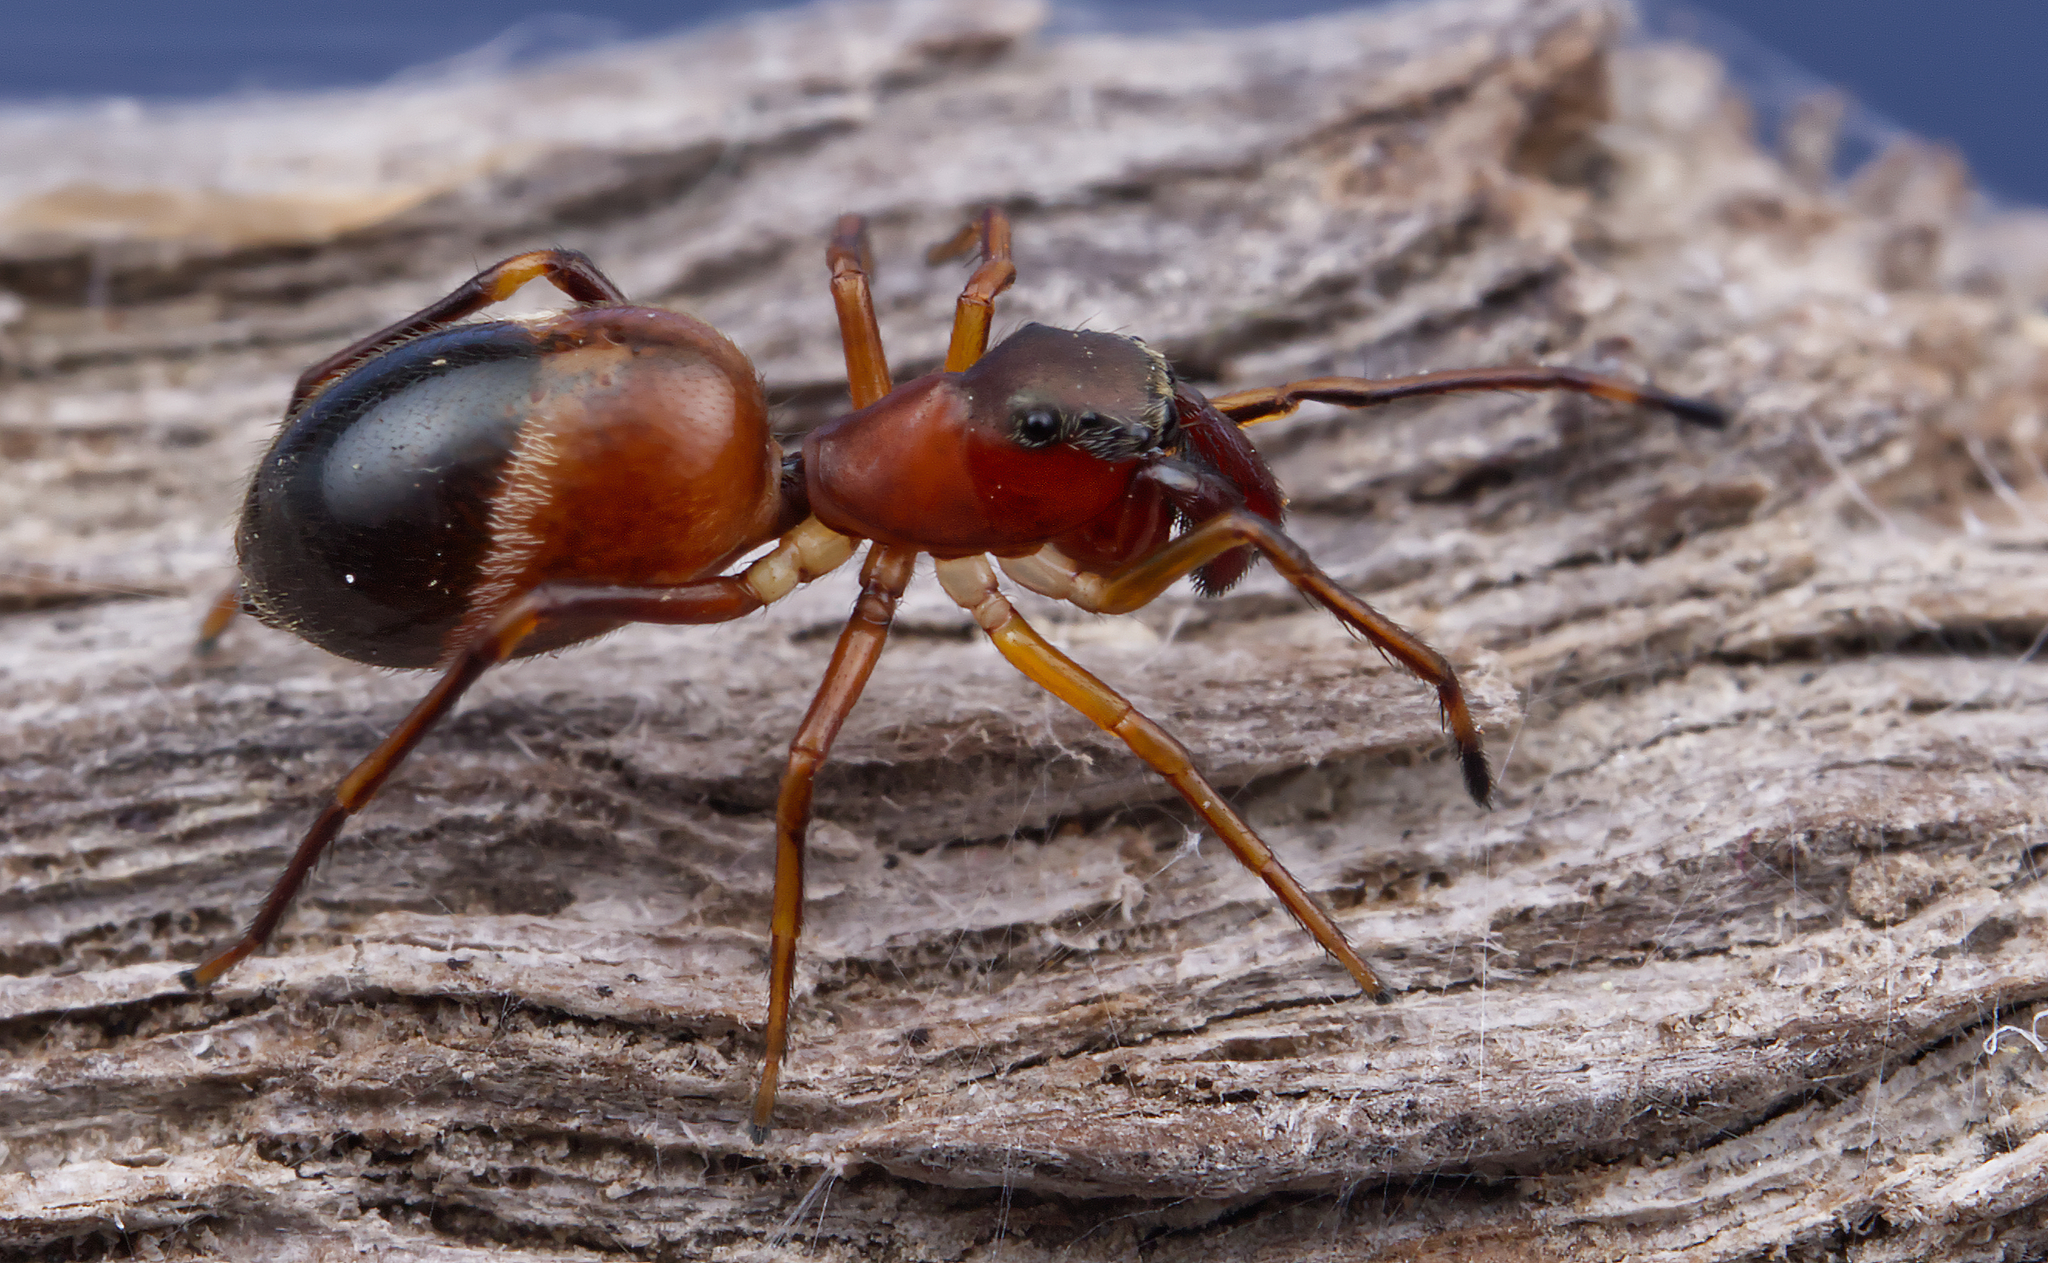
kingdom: Animalia
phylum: Arthropoda
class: Arachnida
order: Araneae
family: Salticidae
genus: Sarinda
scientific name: Sarinda hentzi
